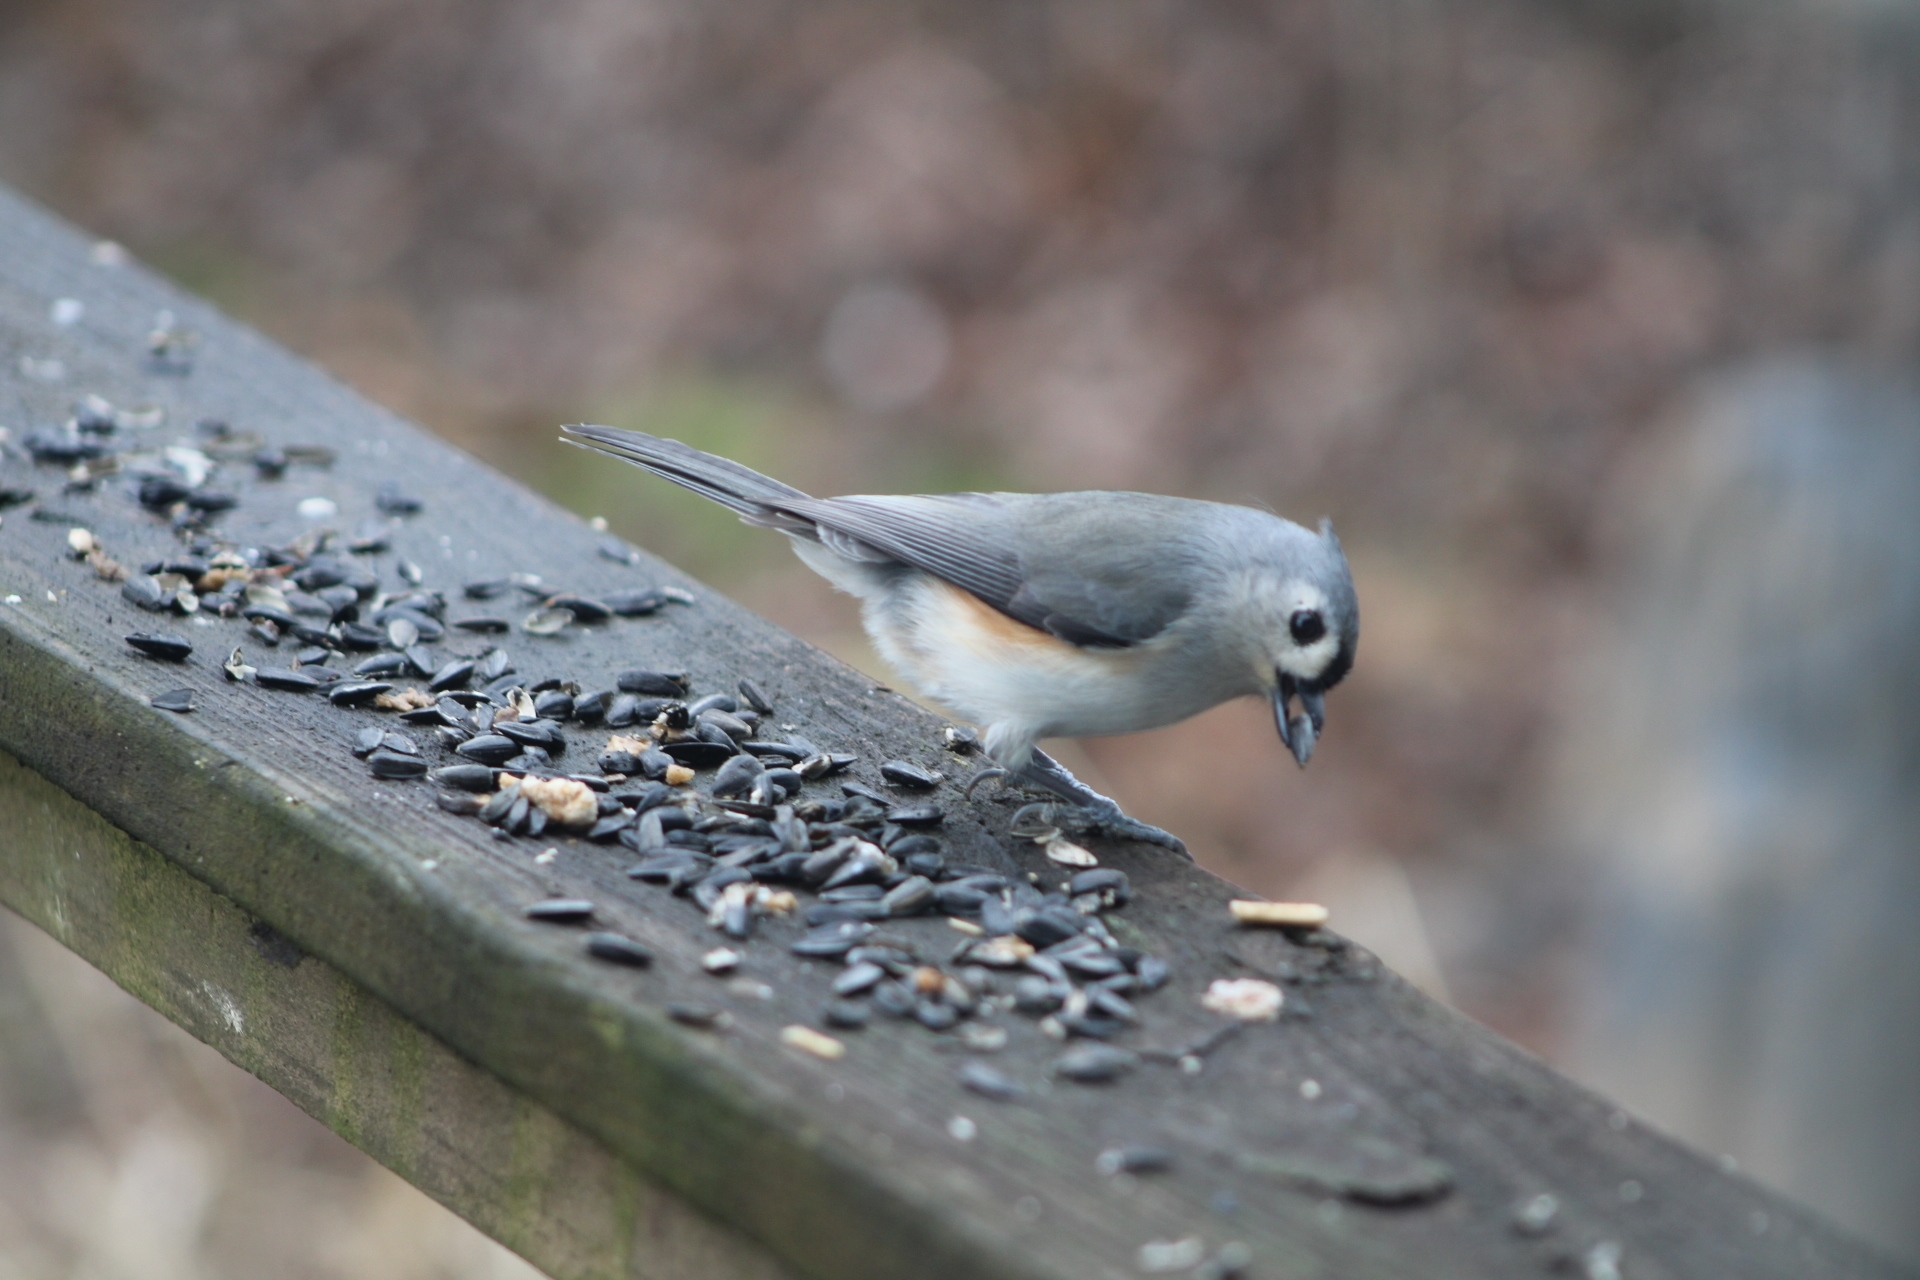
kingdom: Animalia
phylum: Chordata
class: Aves
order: Passeriformes
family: Paridae
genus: Baeolophus
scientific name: Baeolophus bicolor
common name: Tufted titmouse
